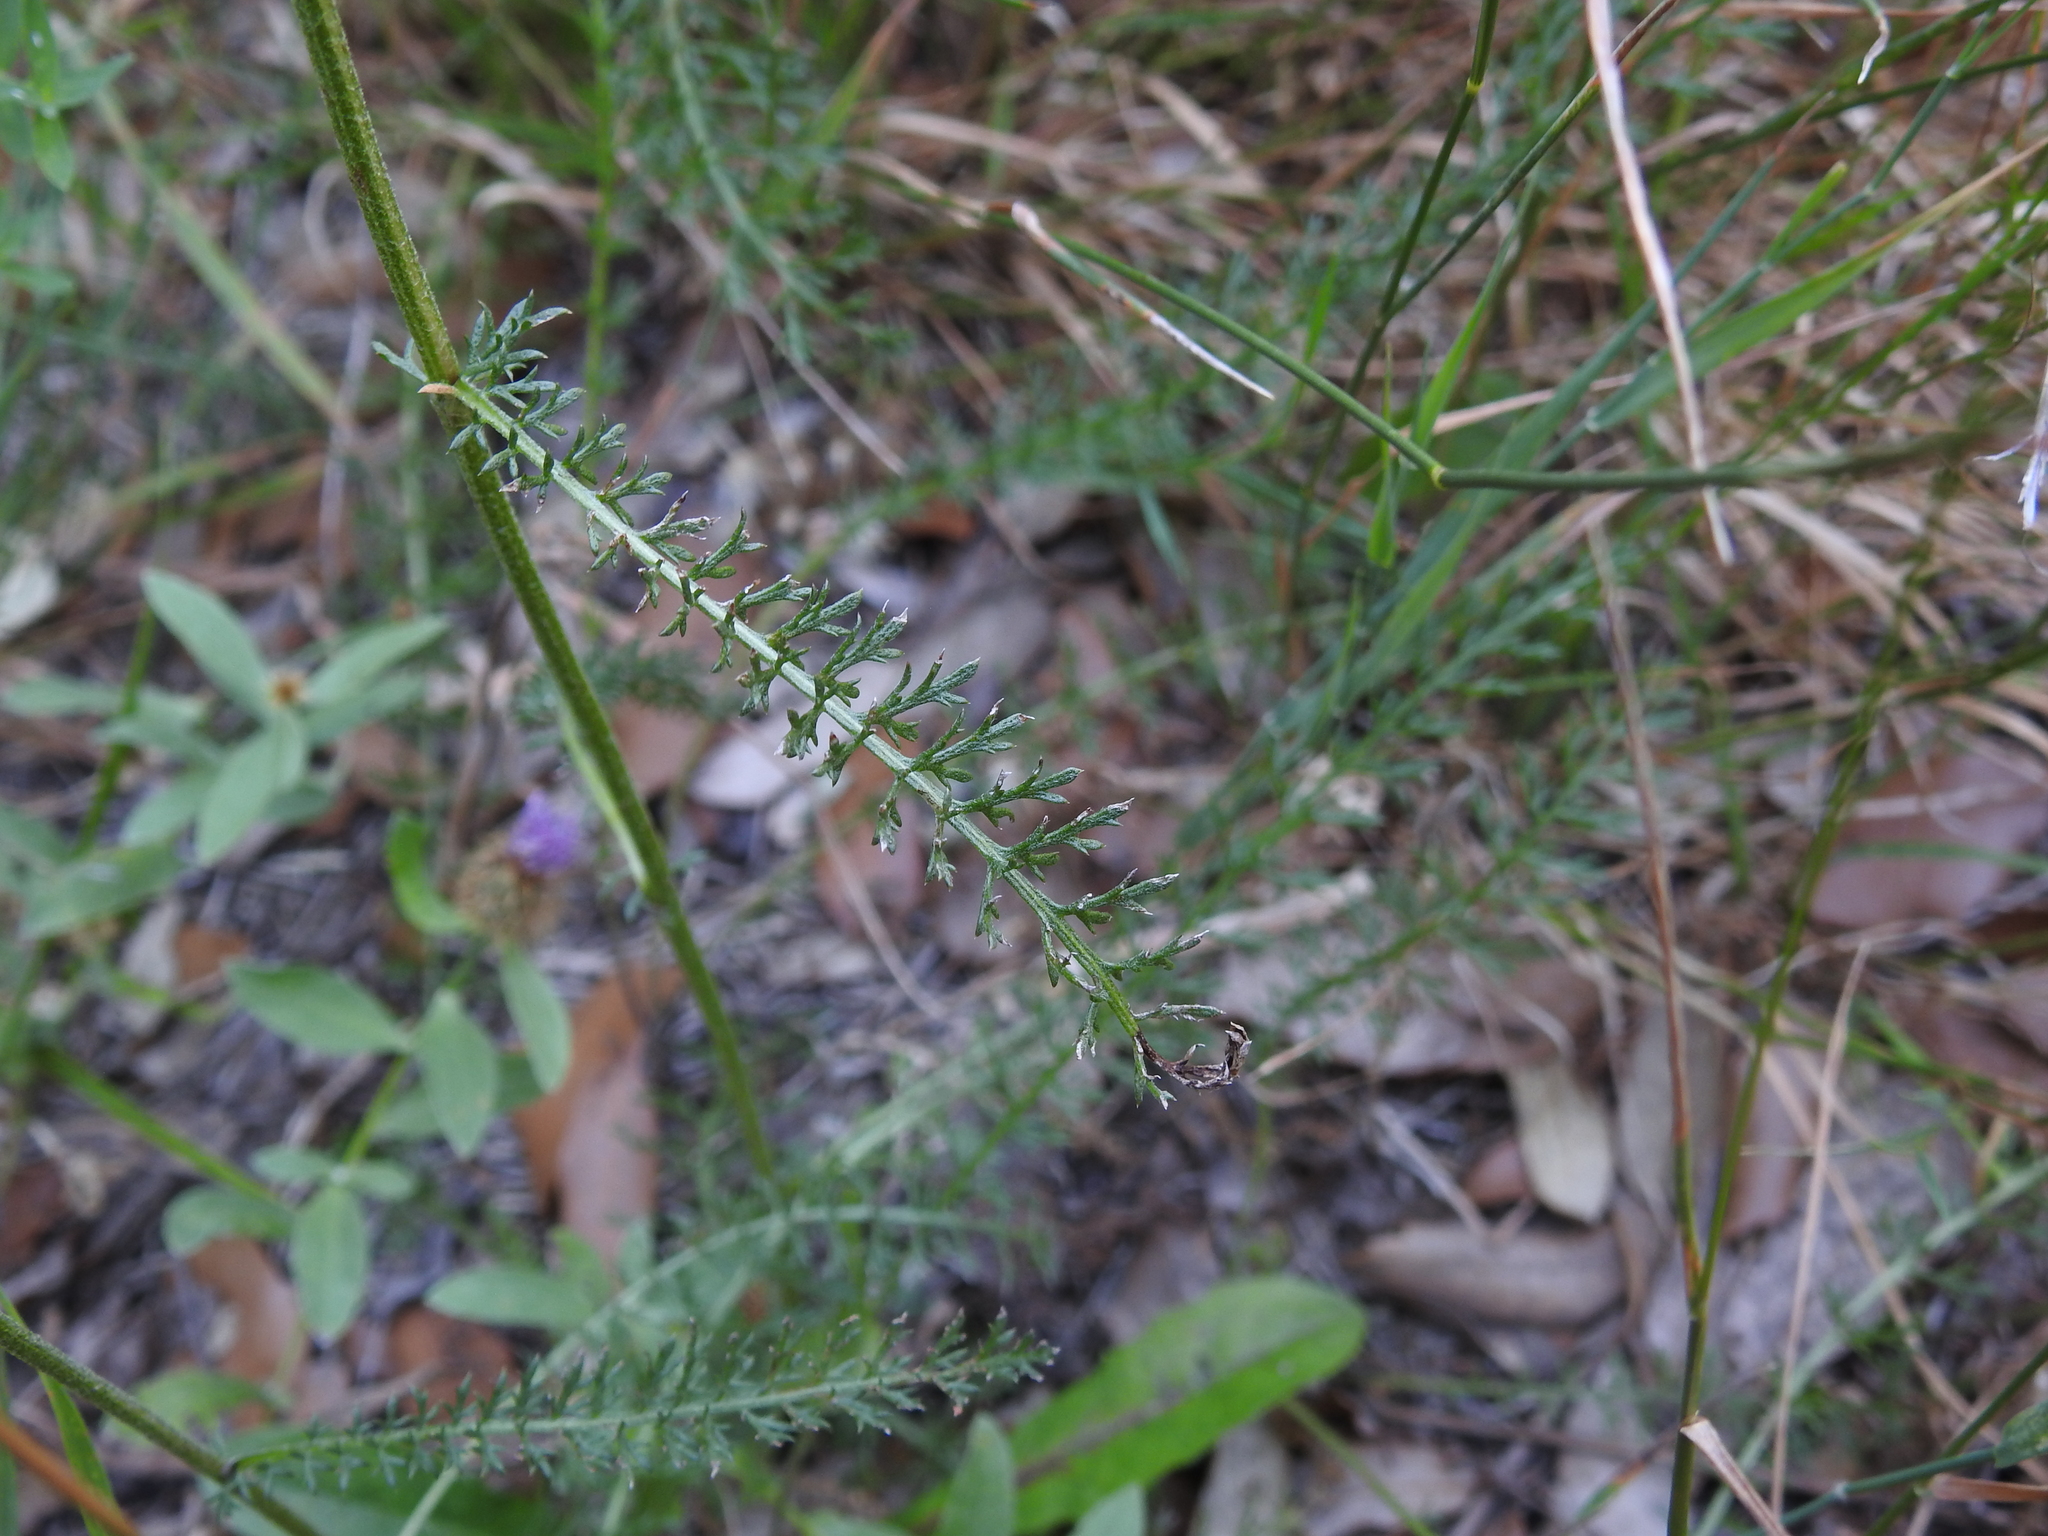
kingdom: Plantae
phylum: Tracheophyta
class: Magnoliopsida
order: Asterales
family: Asteraceae
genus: Achillea
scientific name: Achillea millefolium
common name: Yarrow
